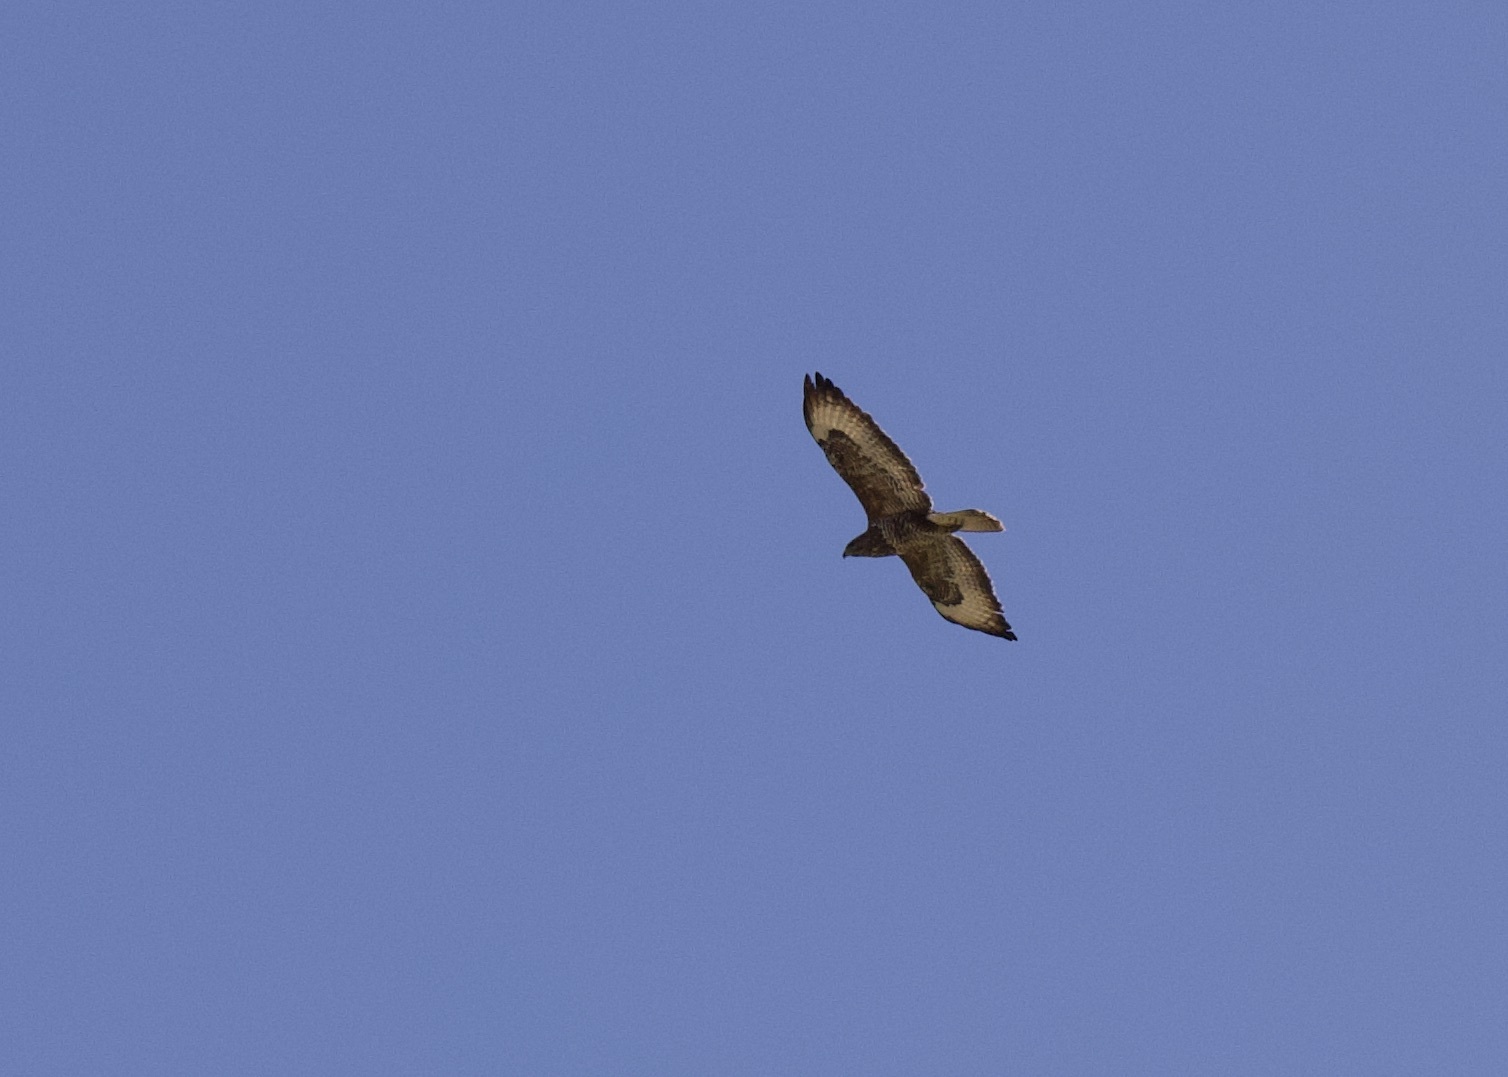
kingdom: Animalia
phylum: Chordata
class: Aves
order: Accipitriformes
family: Accipitridae
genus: Buteo
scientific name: Buteo buteo
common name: Common buzzard
